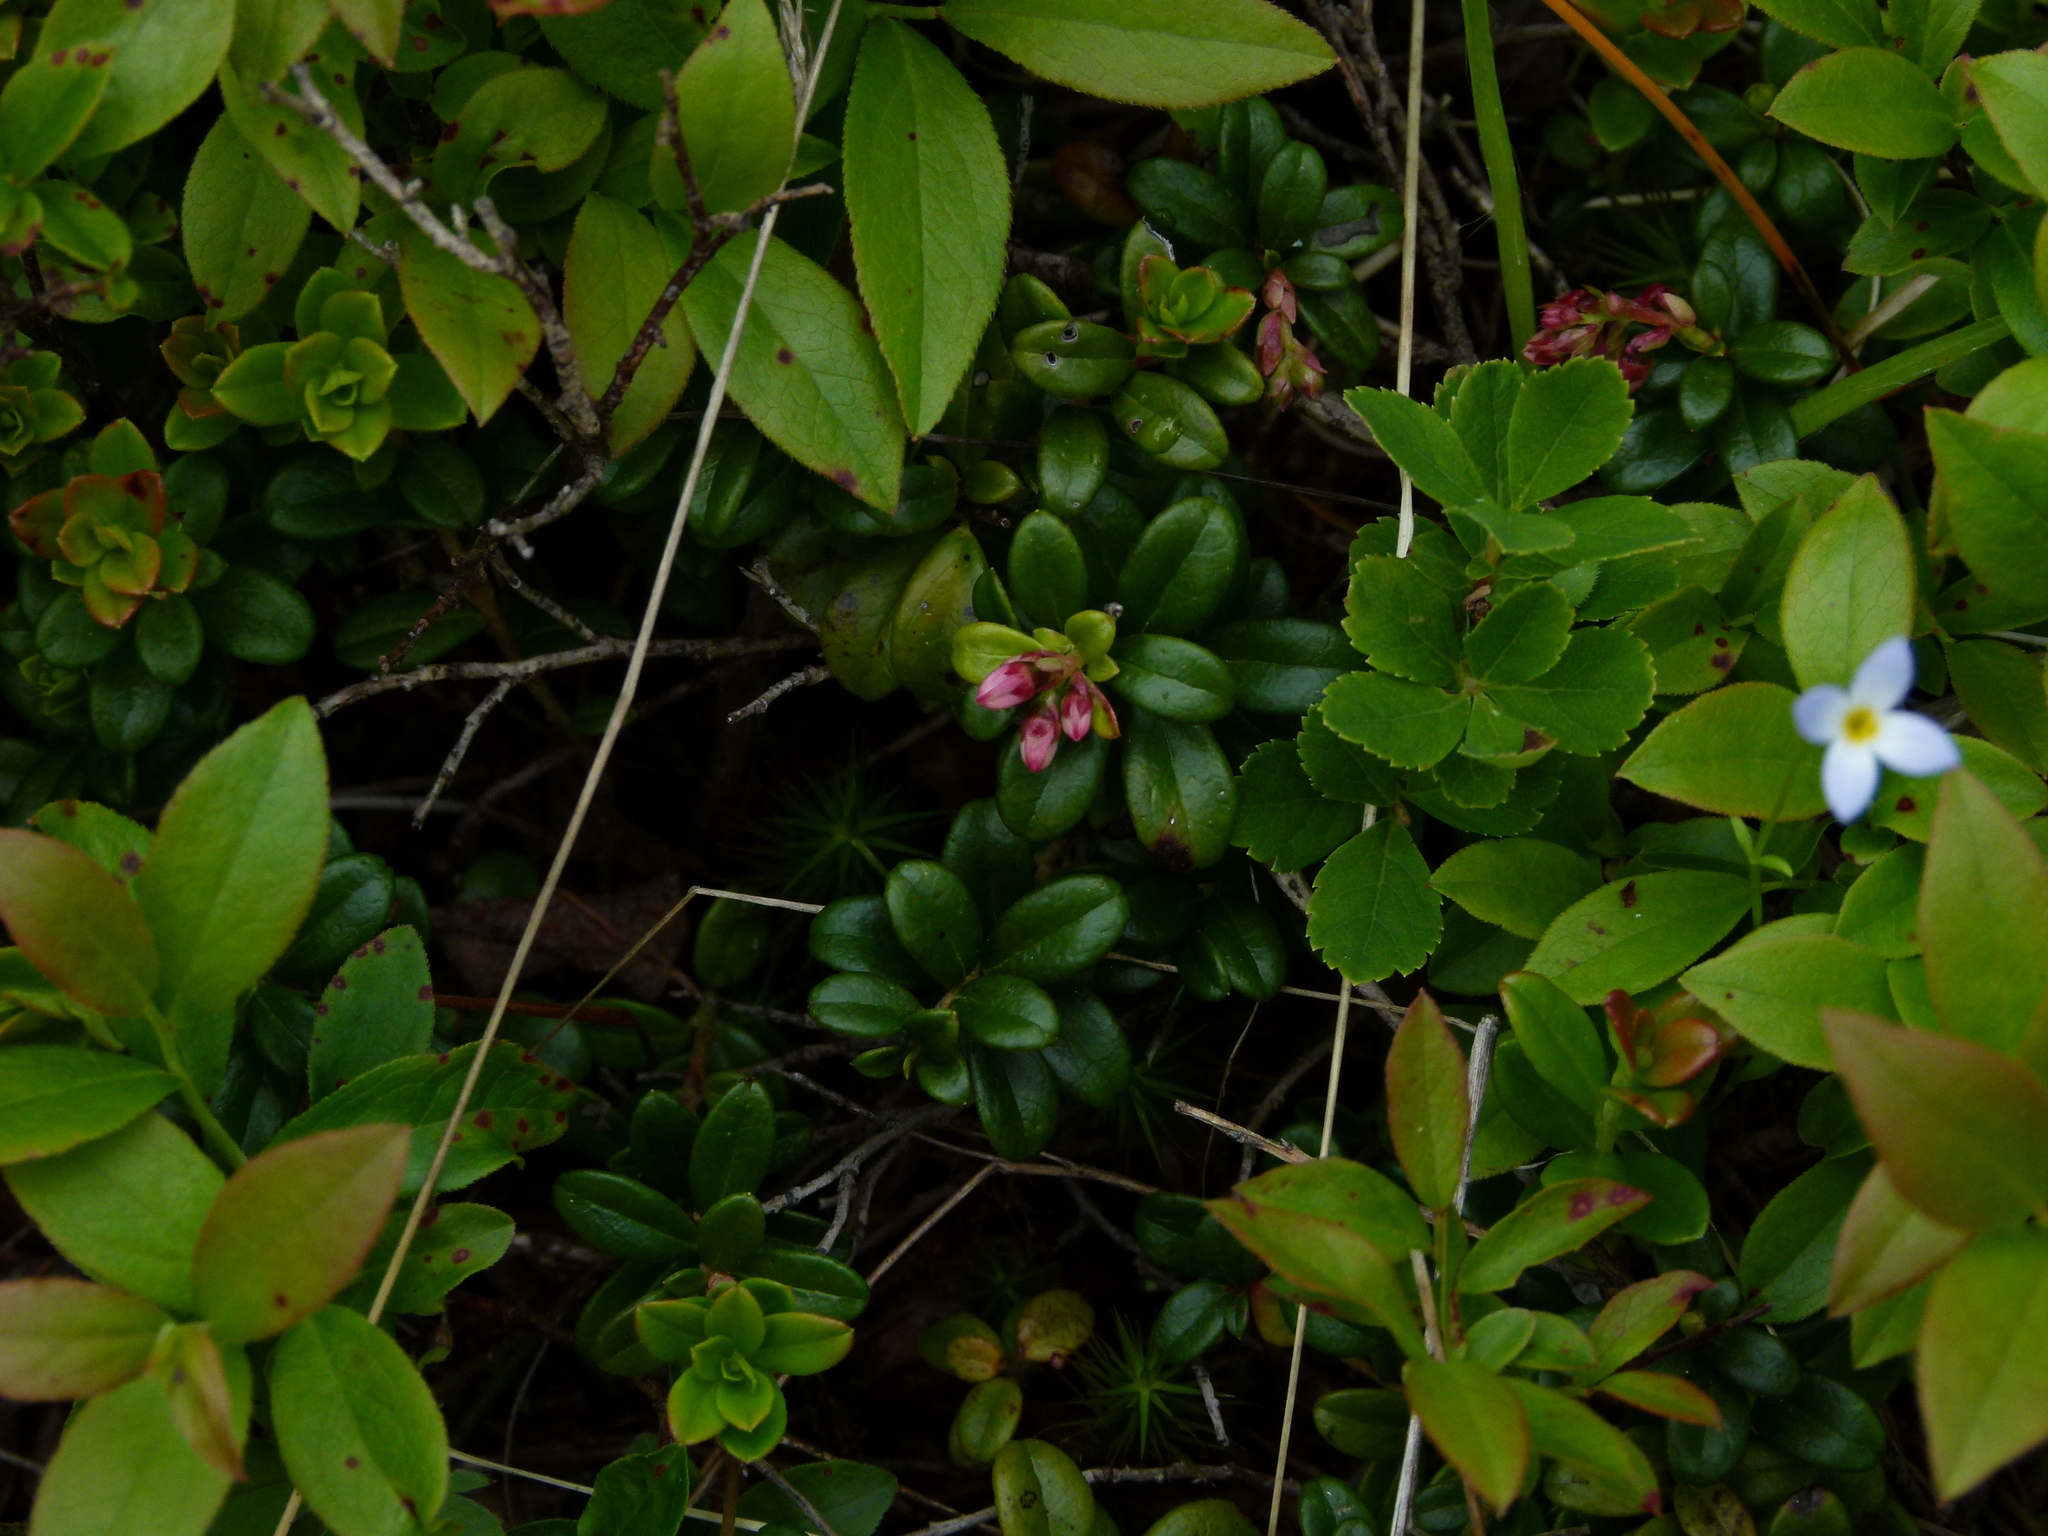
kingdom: Plantae
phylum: Tracheophyta
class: Magnoliopsida
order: Ericales
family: Ericaceae
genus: Vaccinium
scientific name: Vaccinium vitis-idaea
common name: Cowberry
